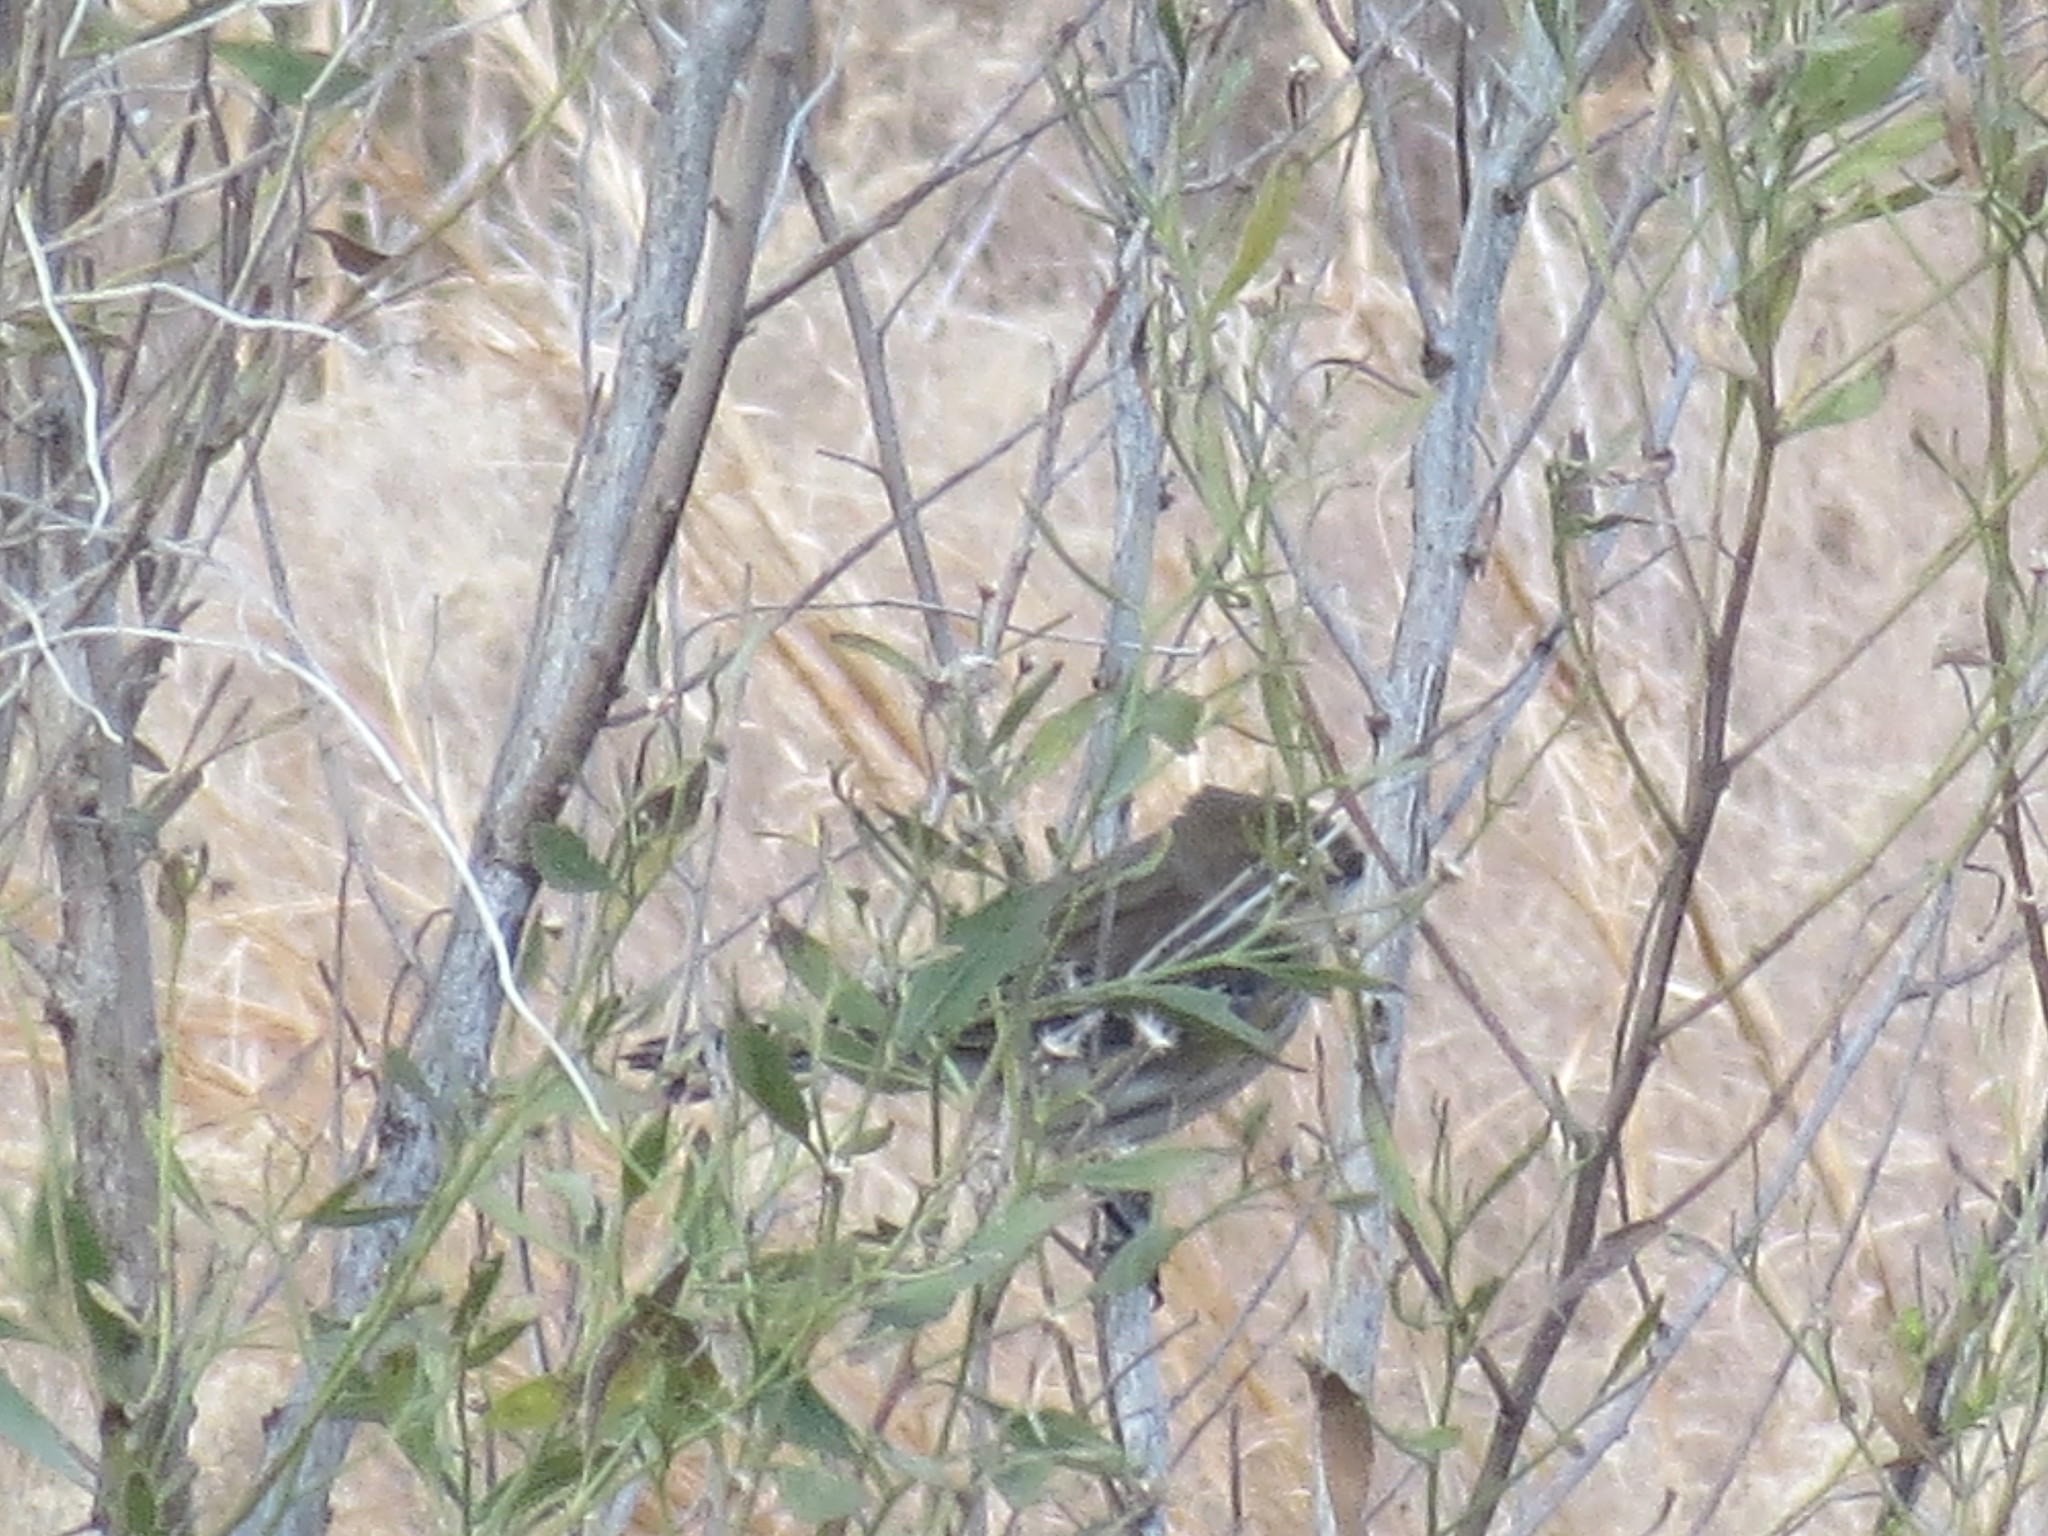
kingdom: Animalia
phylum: Chordata
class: Aves
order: Passeriformes
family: Parulidae
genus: Setophaga
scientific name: Setophaga coronata
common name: Myrtle warbler
